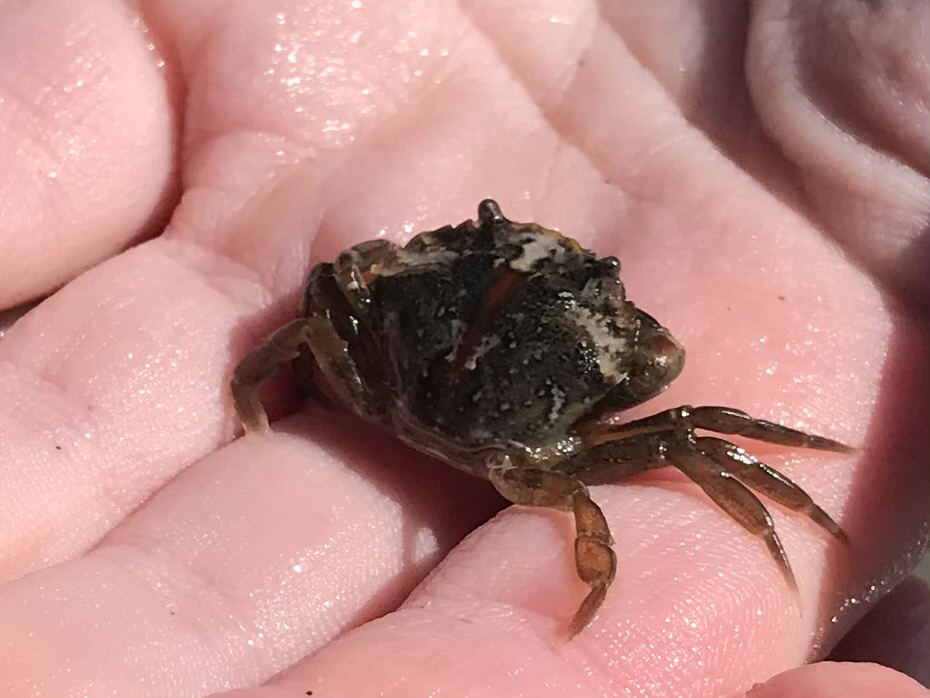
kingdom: Animalia
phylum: Arthropoda
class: Malacostraca
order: Decapoda
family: Carcinidae
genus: Carcinus
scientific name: Carcinus maenas
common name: European green crab
